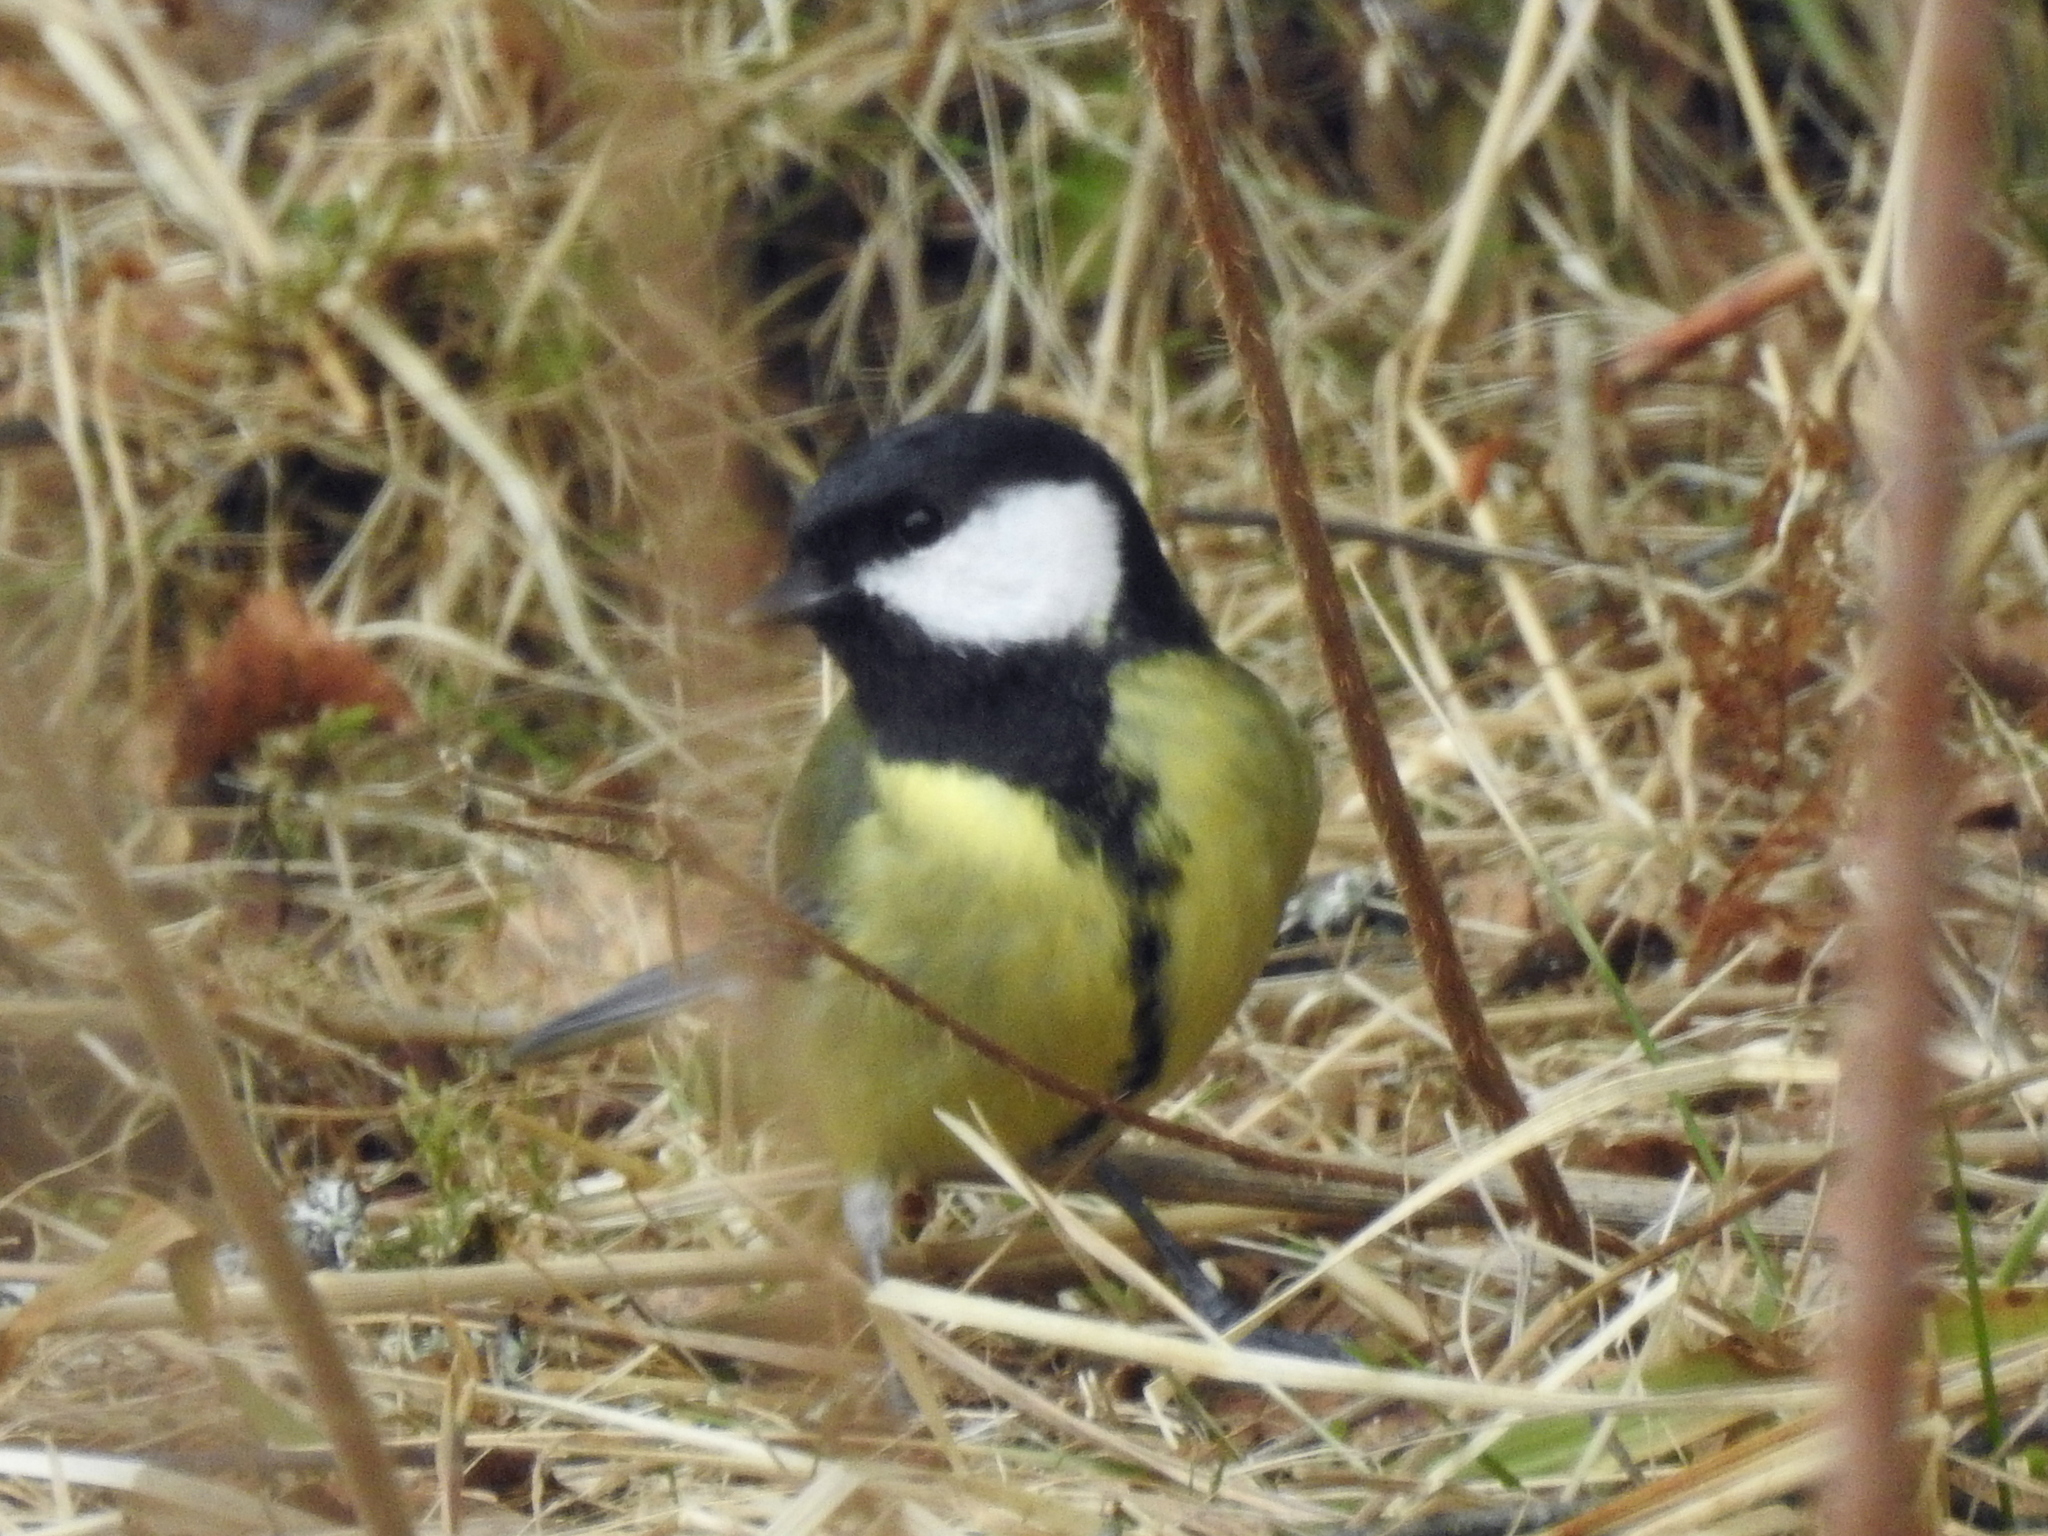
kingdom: Animalia
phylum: Chordata
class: Aves
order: Passeriformes
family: Paridae
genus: Parus
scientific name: Parus major
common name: Great tit
